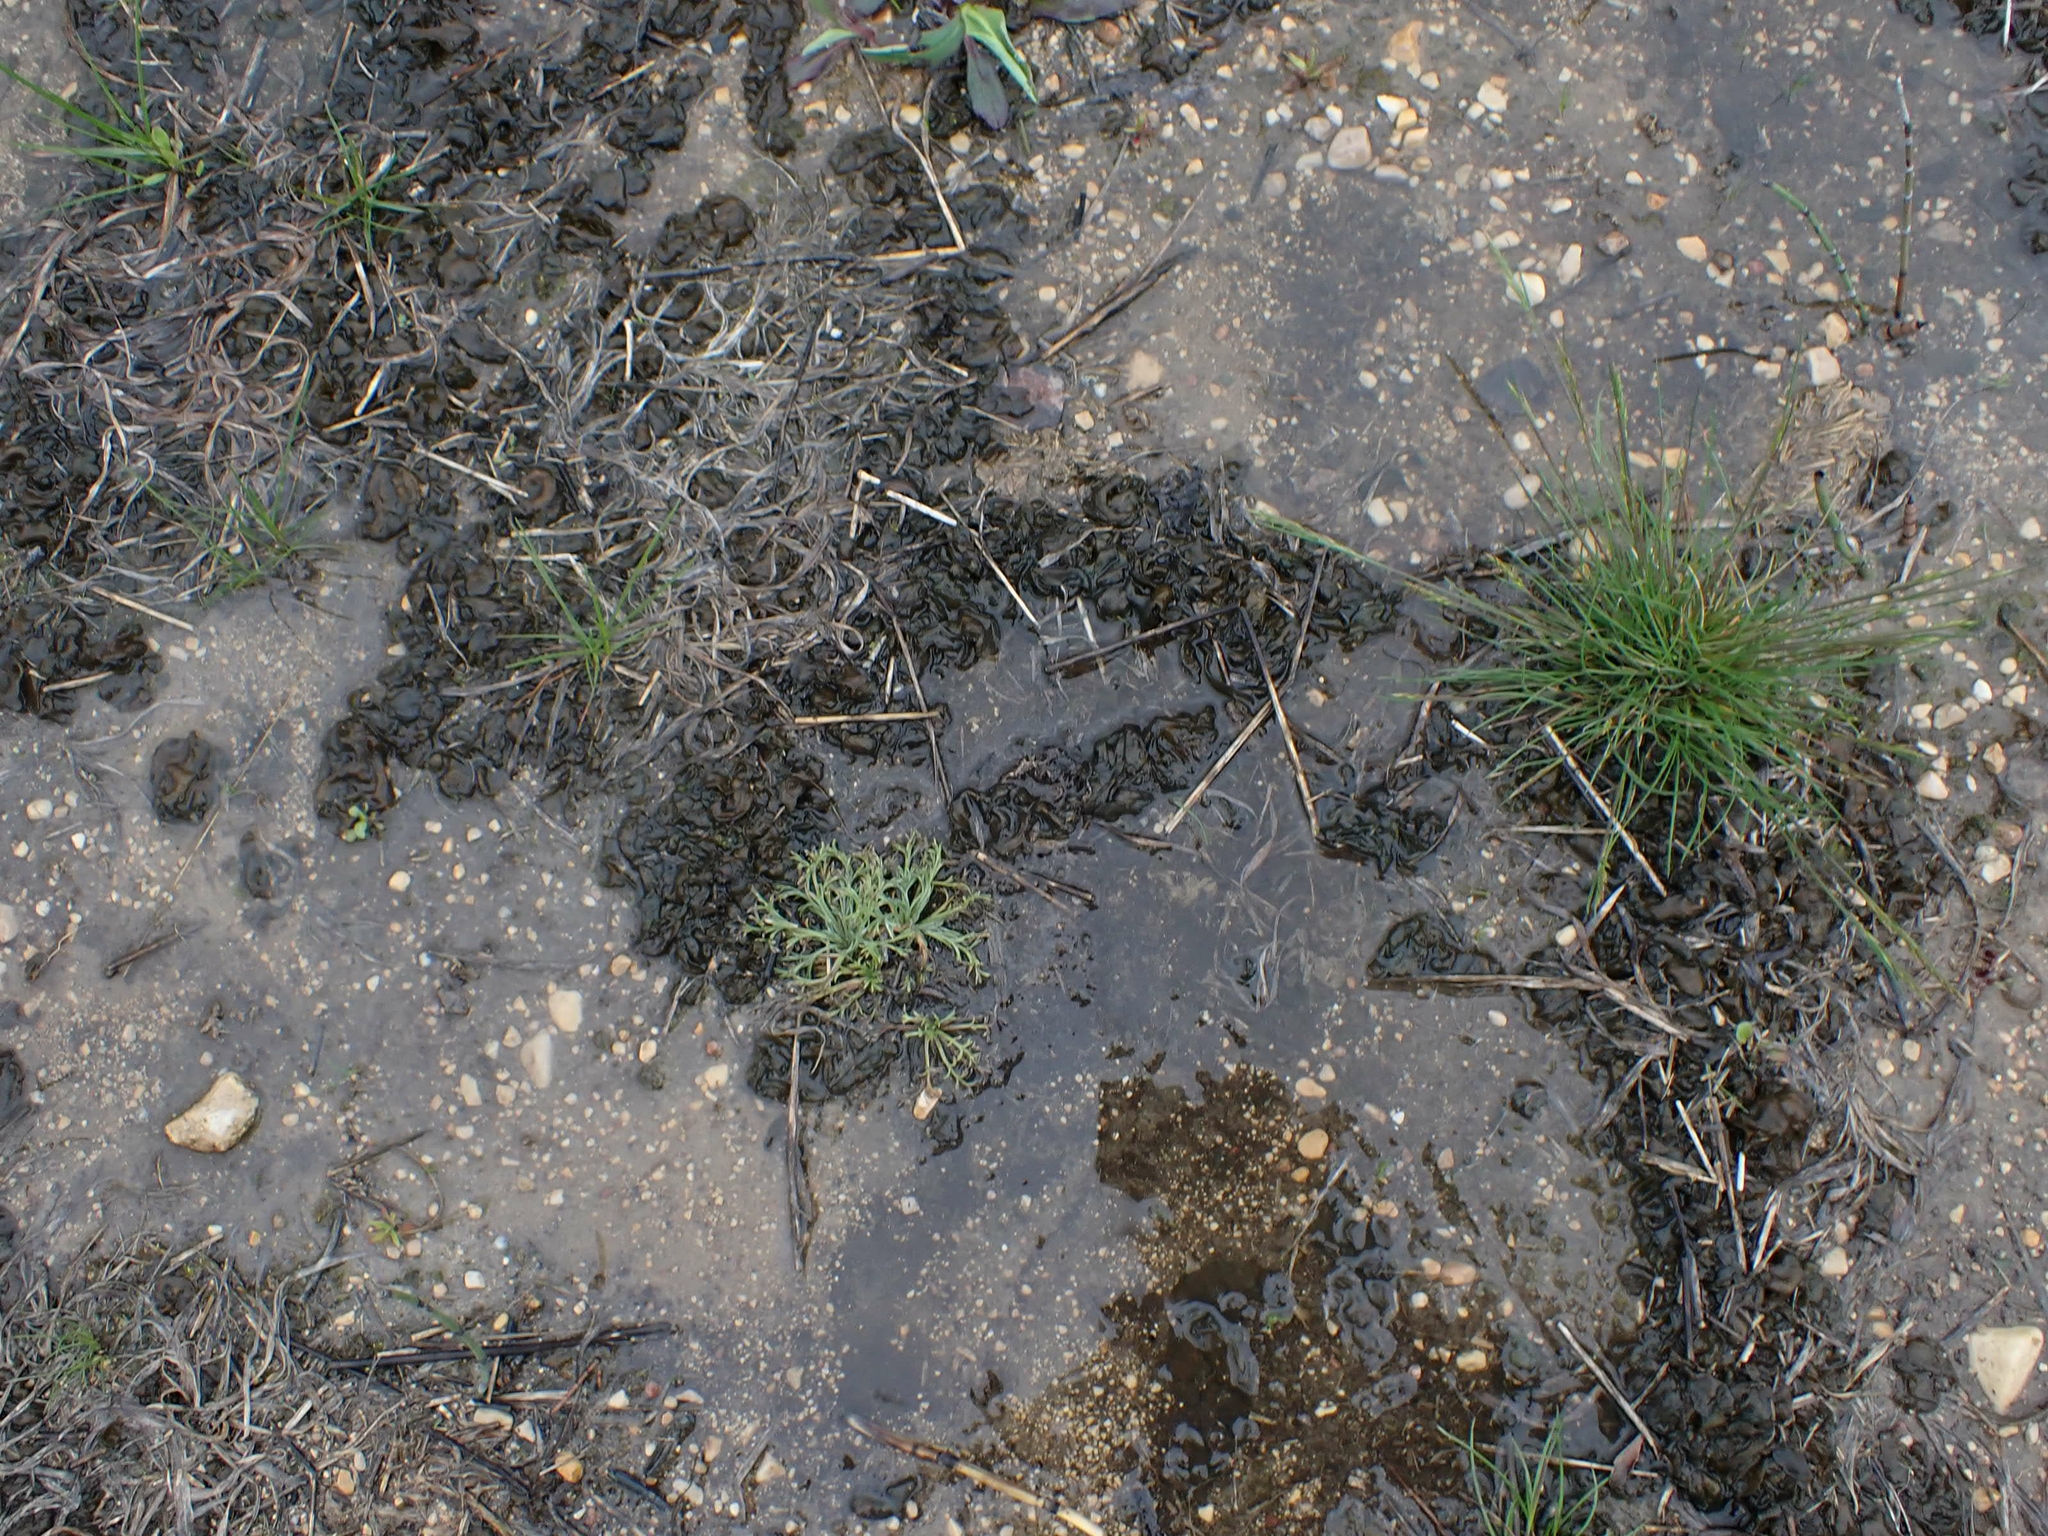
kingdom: Bacteria
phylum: Cyanobacteria
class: Cyanobacteriia
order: Cyanobacteriales
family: Nostocaceae
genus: Nostoc
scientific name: Nostoc commune
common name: Star jelly
